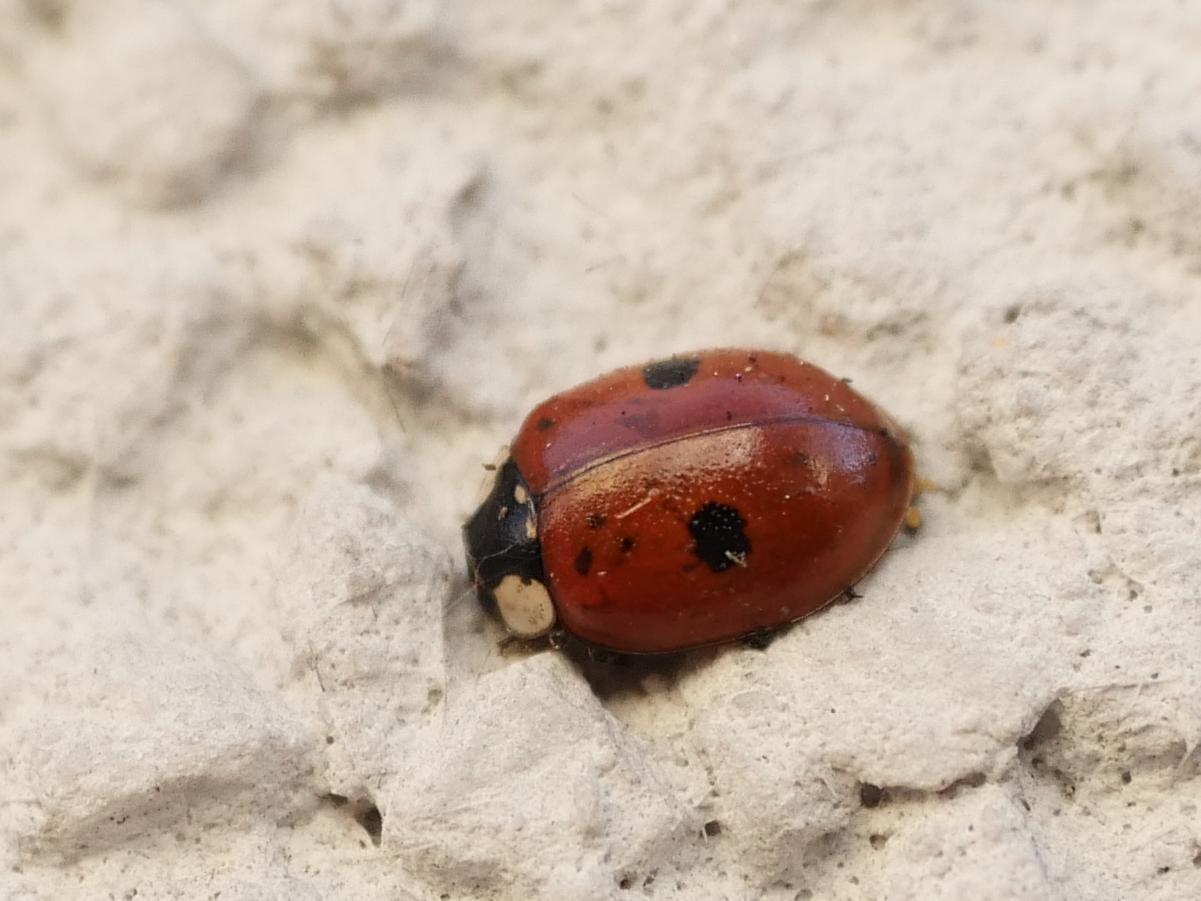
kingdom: Animalia
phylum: Arthropoda
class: Insecta
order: Coleoptera
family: Coccinellidae
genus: Adalia
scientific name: Adalia bipunctata
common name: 2-spot ladybird
